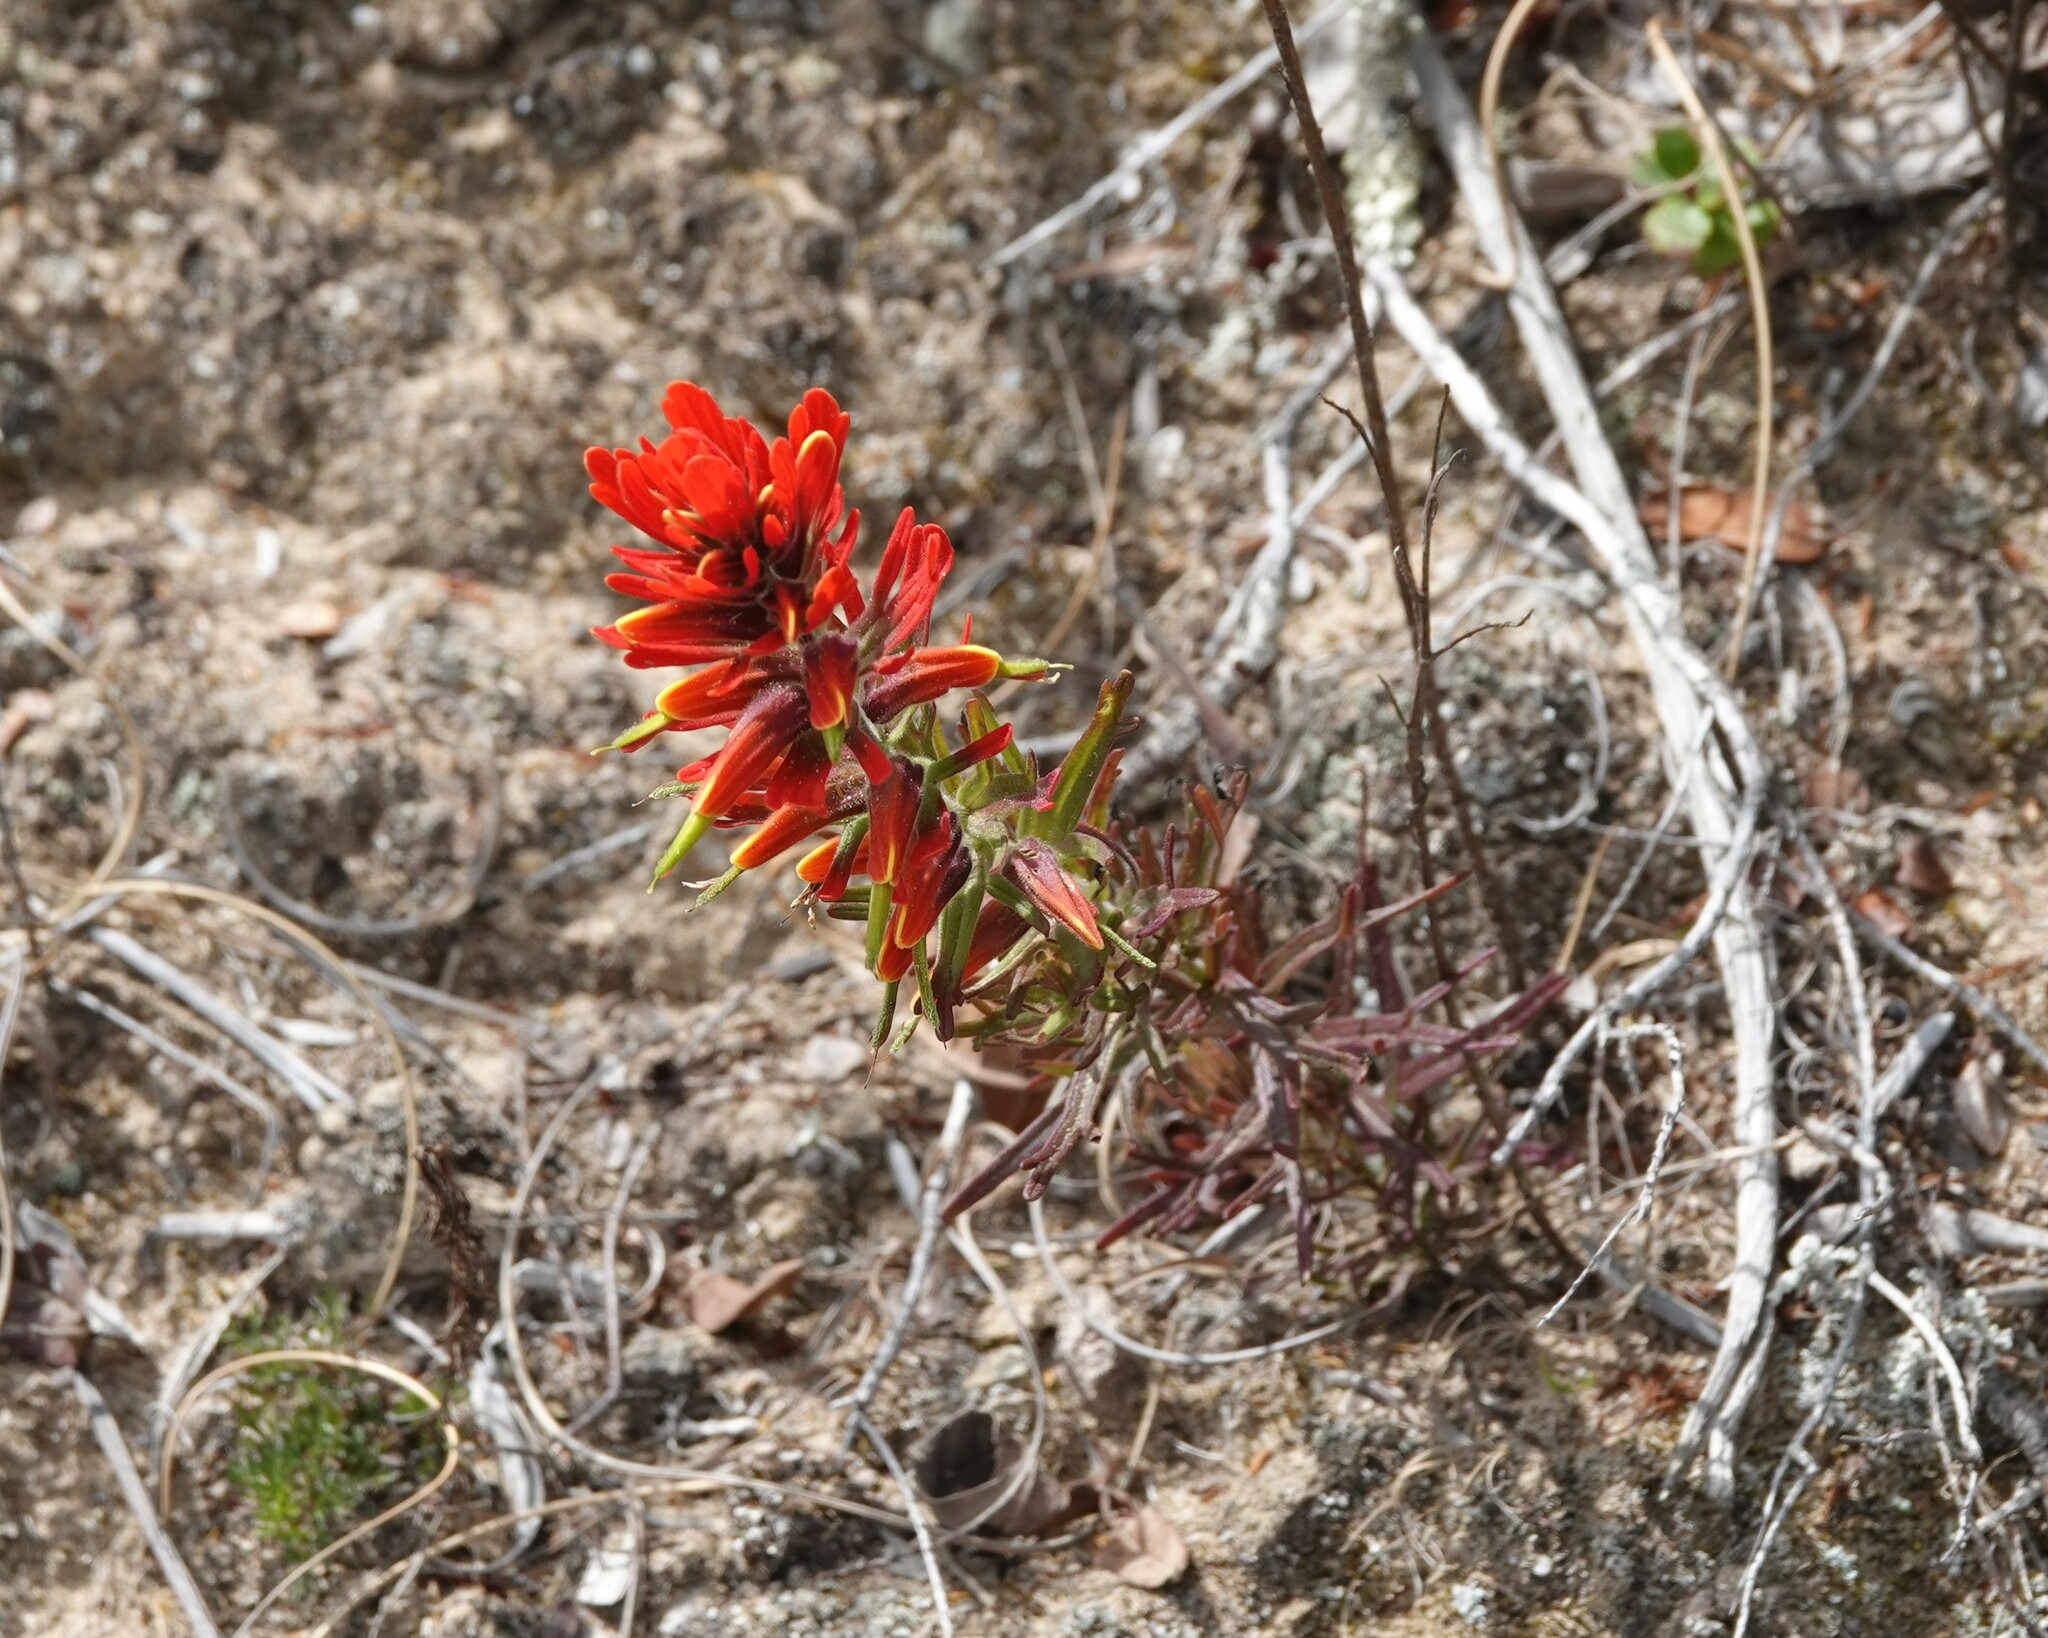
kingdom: Plantae
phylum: Tracheophyta
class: Magnoliopsida
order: Lamiales
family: Orobanchaceae
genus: Castilleja
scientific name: Castilleja fissifolia
